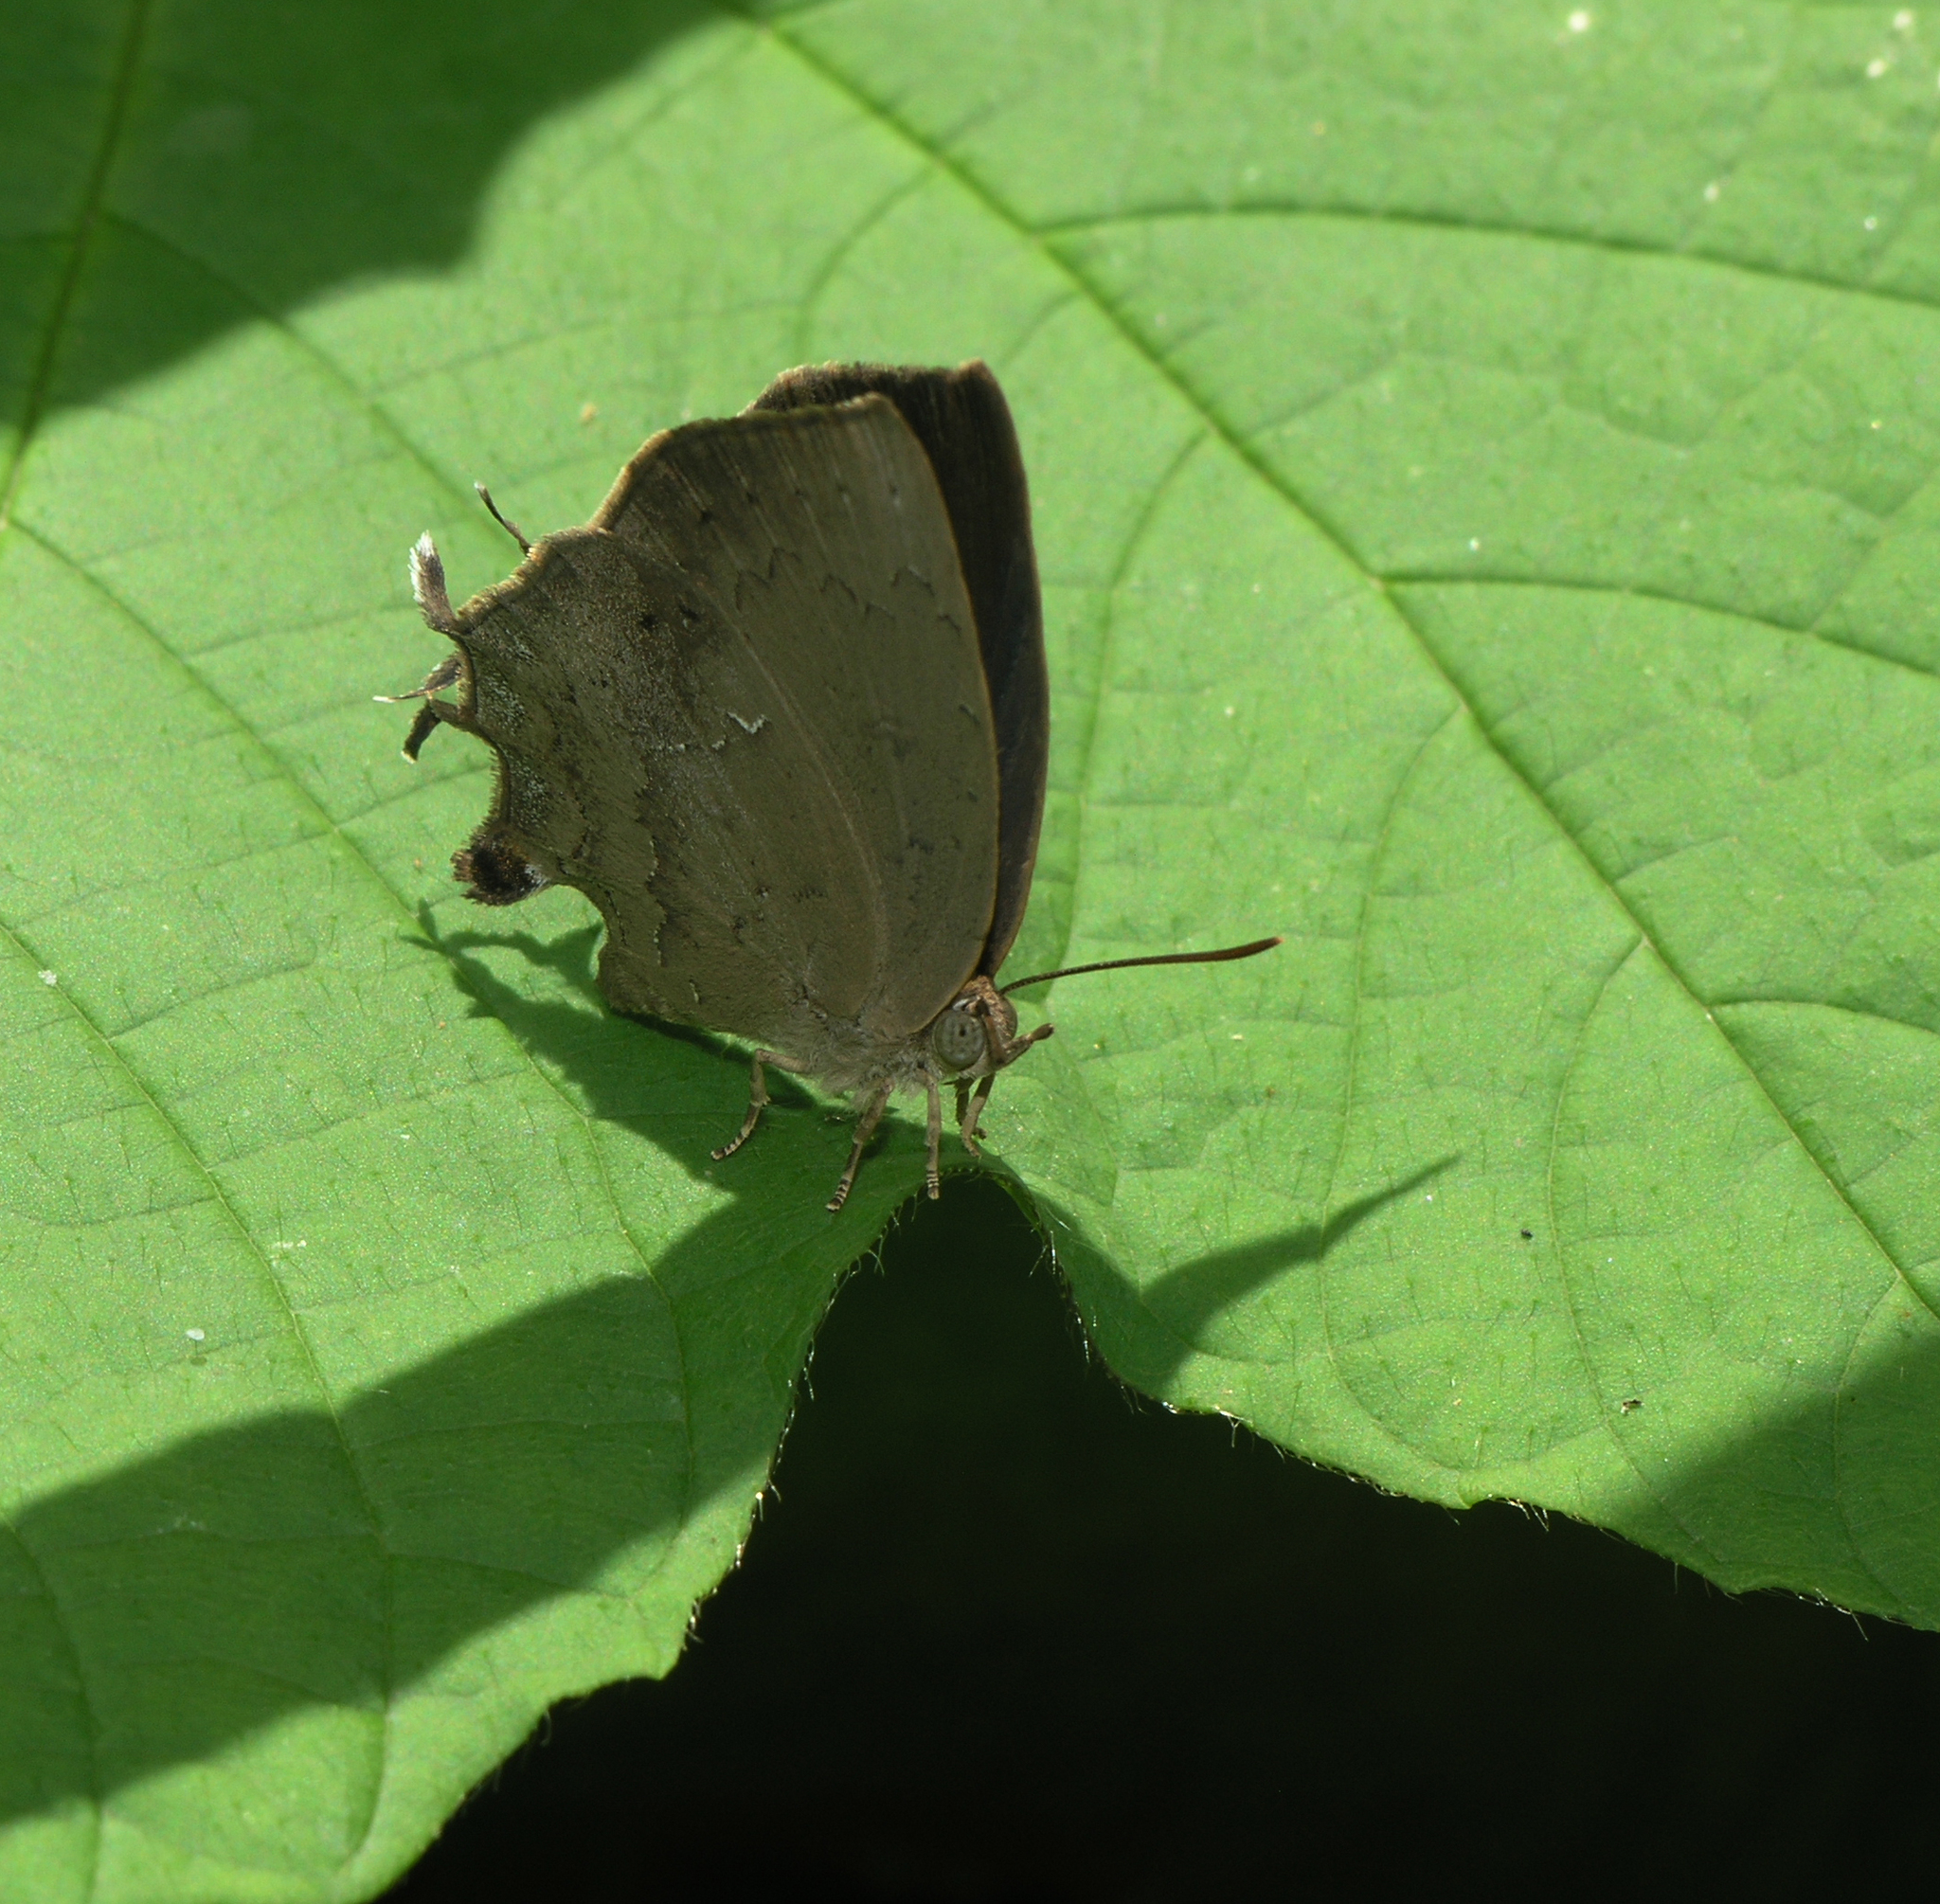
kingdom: Animalia
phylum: Arthropoda
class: Insecta
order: Lepidoptera
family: Lycaenidae
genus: Surendra
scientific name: Surendra quercetorum
